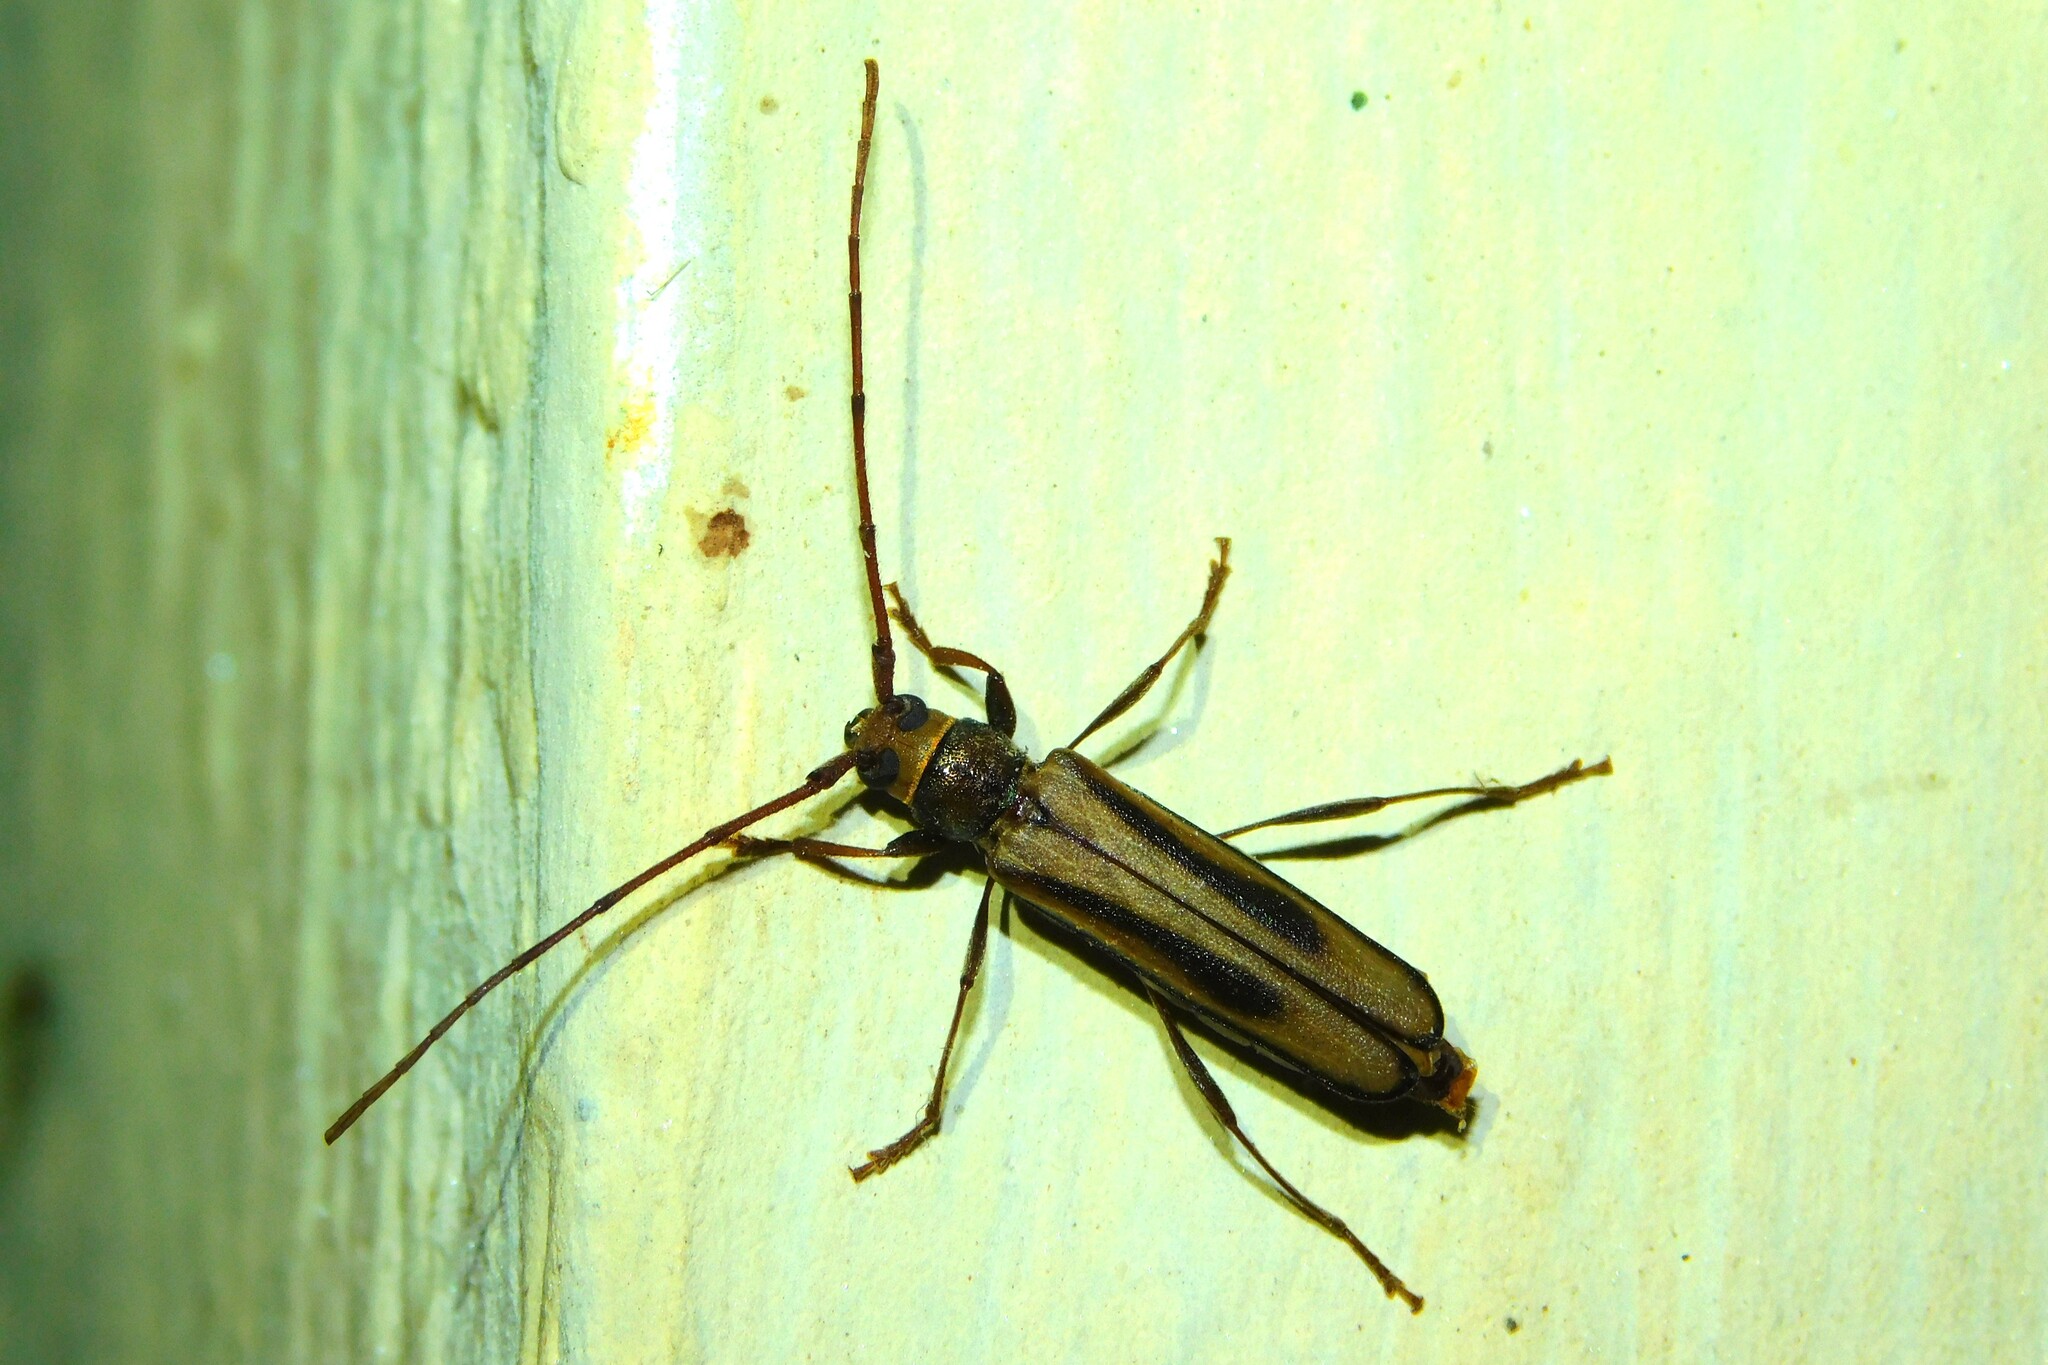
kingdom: Animalia
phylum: Arthropoda
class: Insecta
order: Coleoptera
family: Cerambycidae
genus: Xystrocera
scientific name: Xystrocera abrupta
